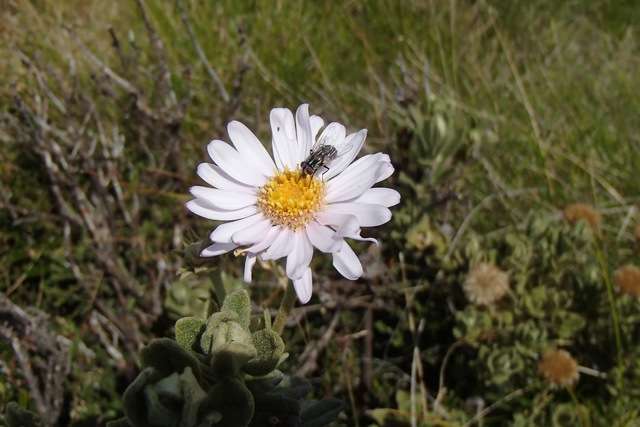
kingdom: Plantae
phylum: Tracheophyta
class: Magnoliopsida
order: Asterales
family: Asteraceae
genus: Olearia
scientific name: Olearia frostii
